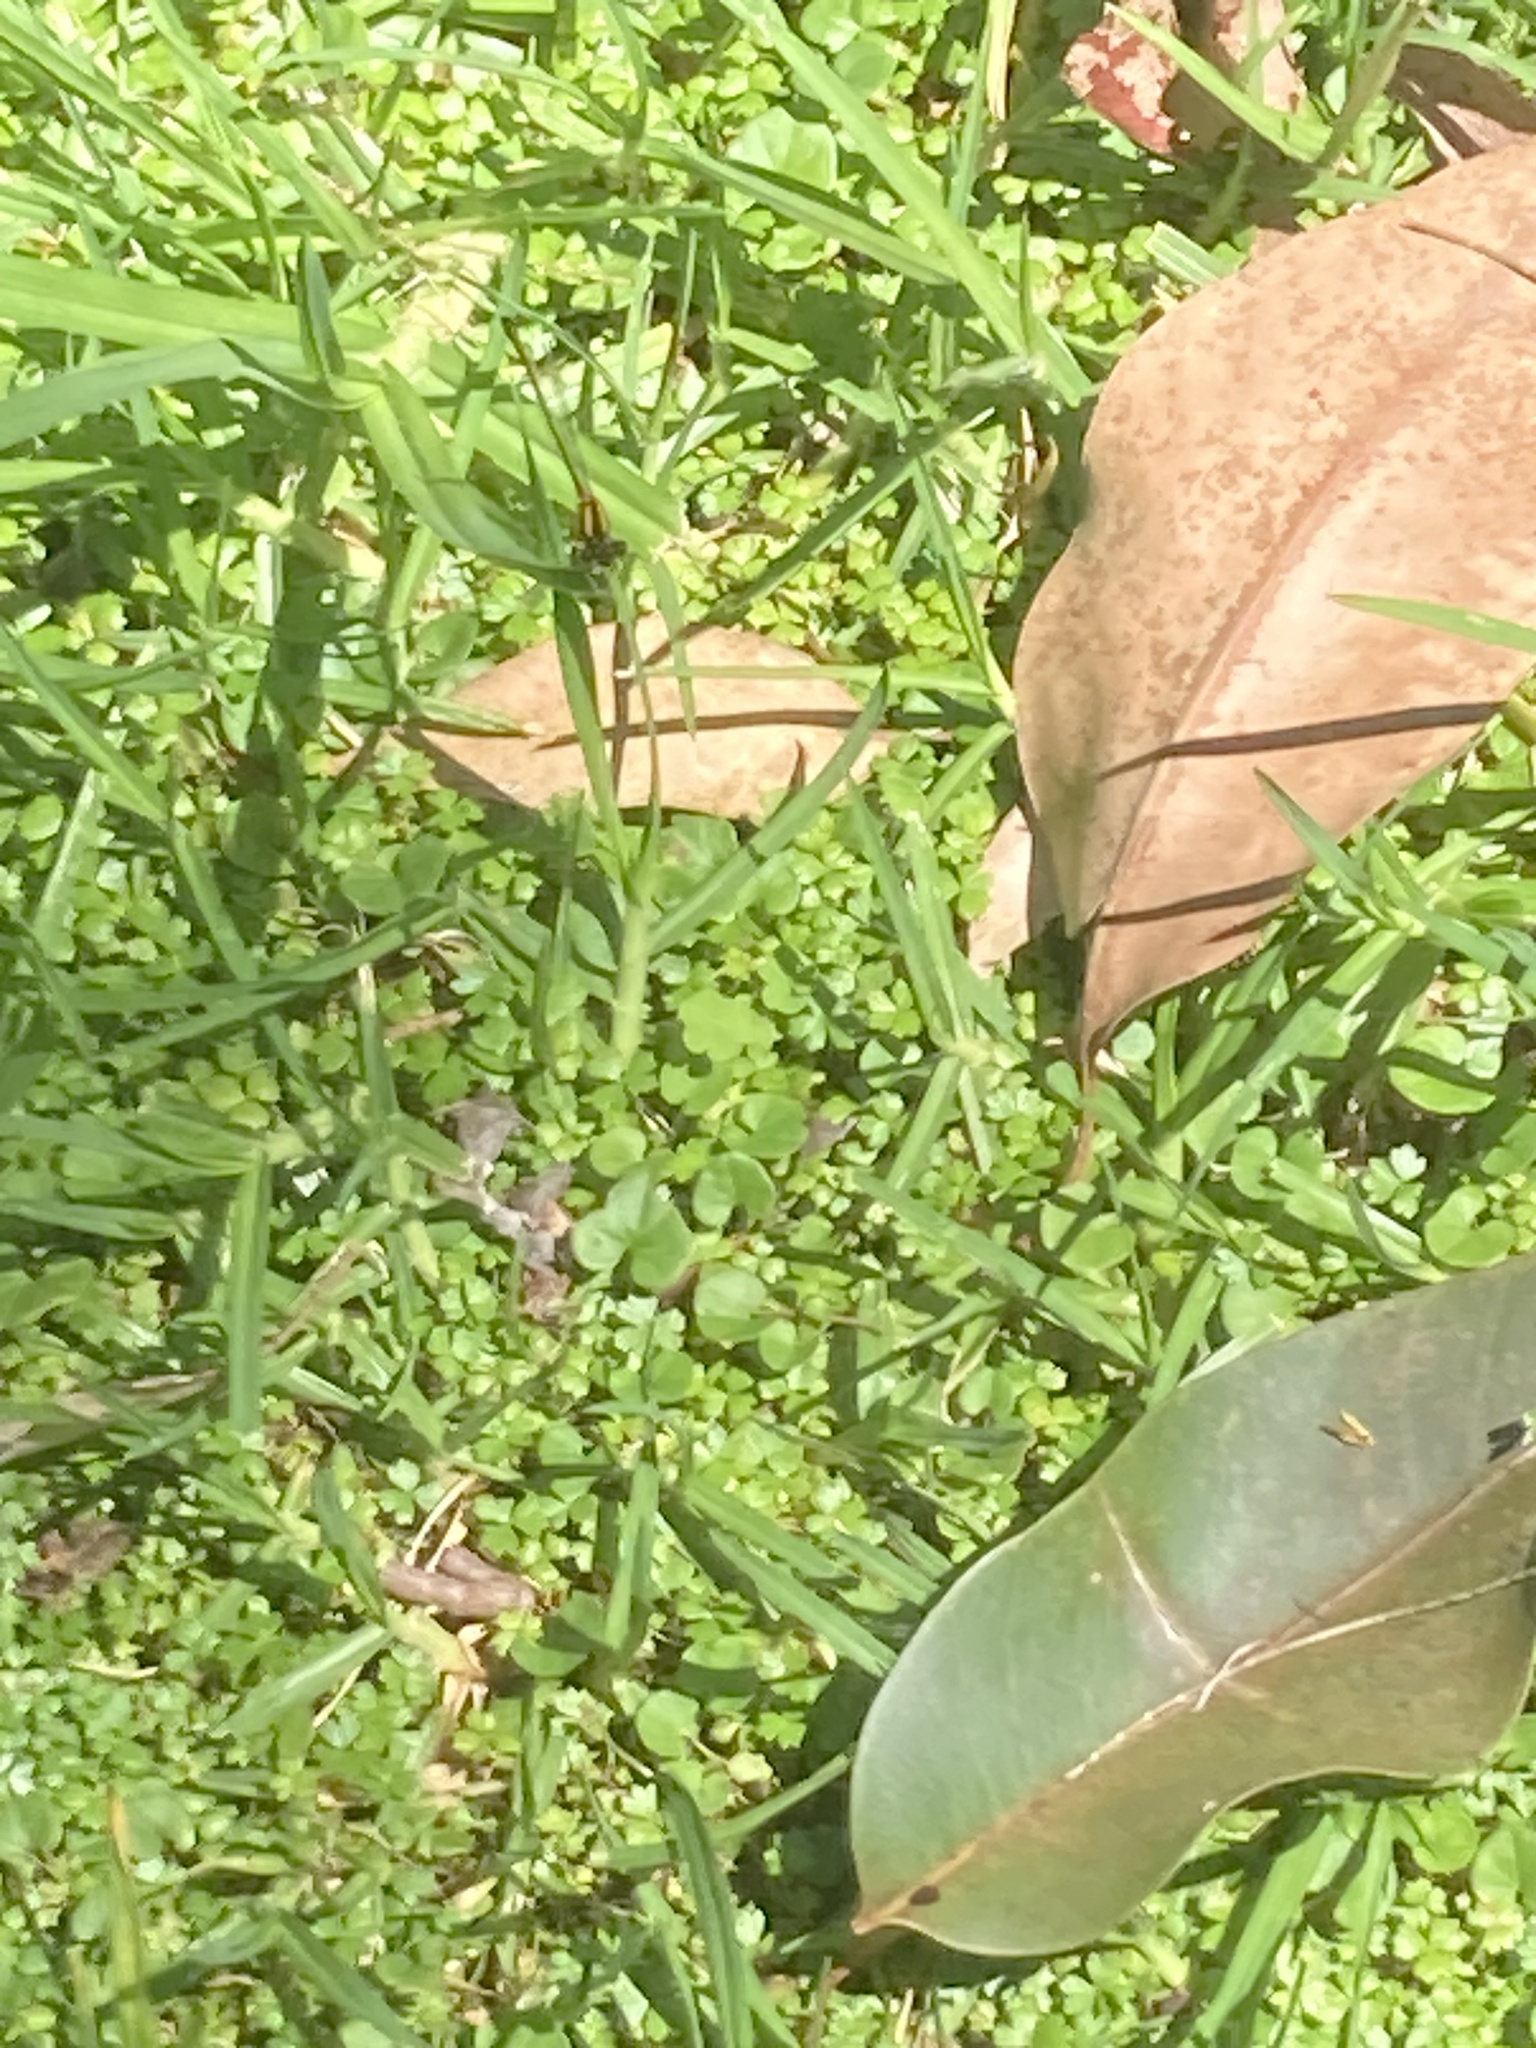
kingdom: Animalia
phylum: Arthropoda
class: Insecta
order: Odonata
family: Platycnemididae
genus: Nososticta
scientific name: Nososticta solida
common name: Orange threadtail
